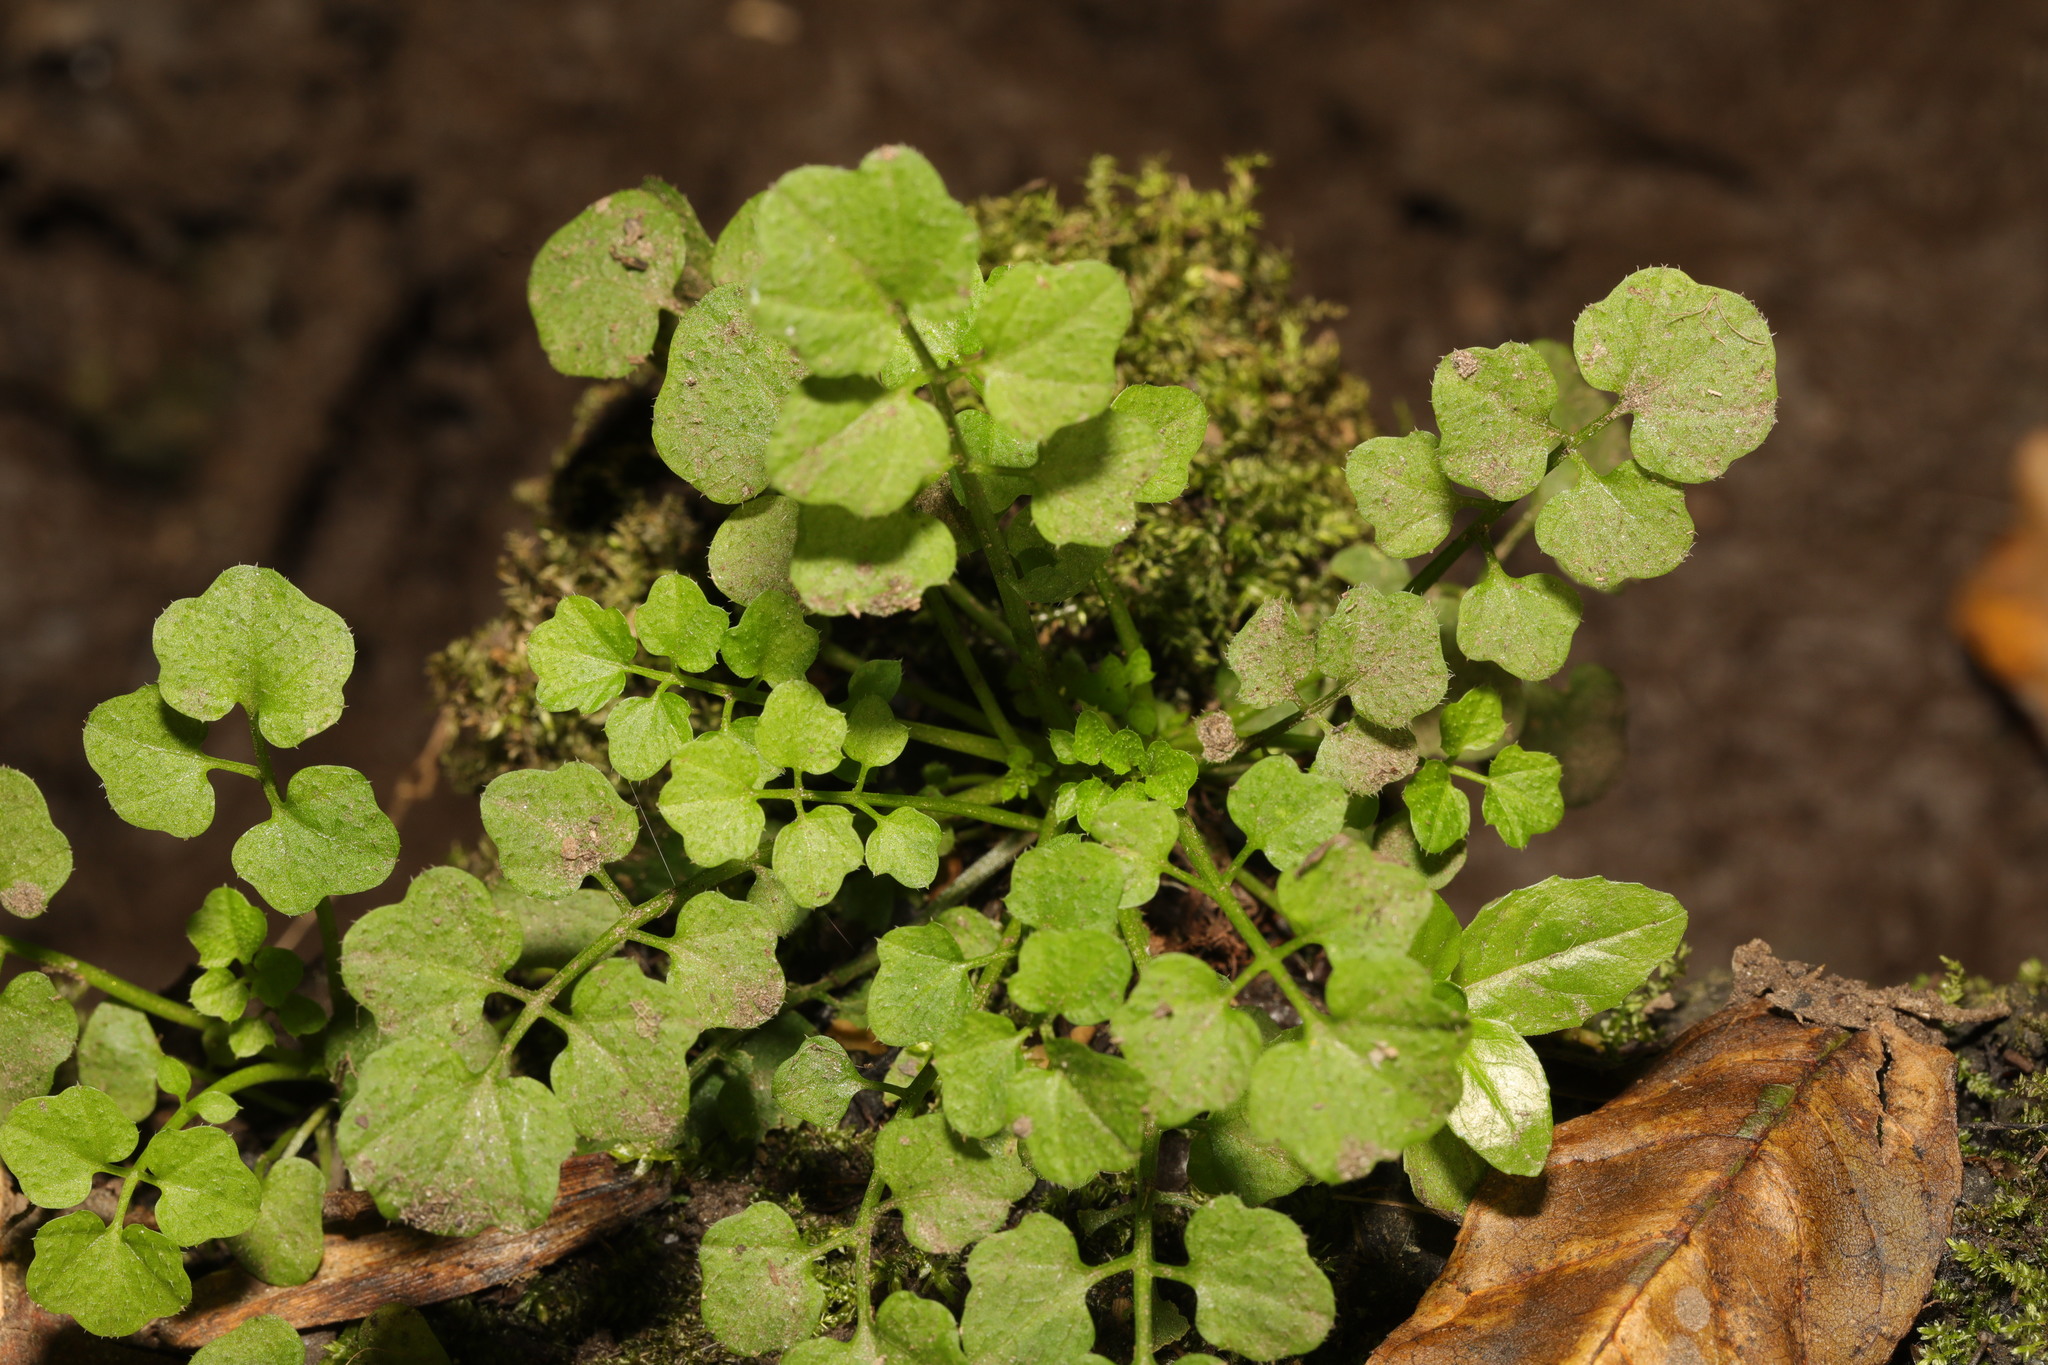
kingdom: Plantae
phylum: Tracheophyta
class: Magnoliopsida
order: Brassicales
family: Brassicaceae
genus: Cardamine
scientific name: Cardamine flexuosa
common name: Woodland bittercress
